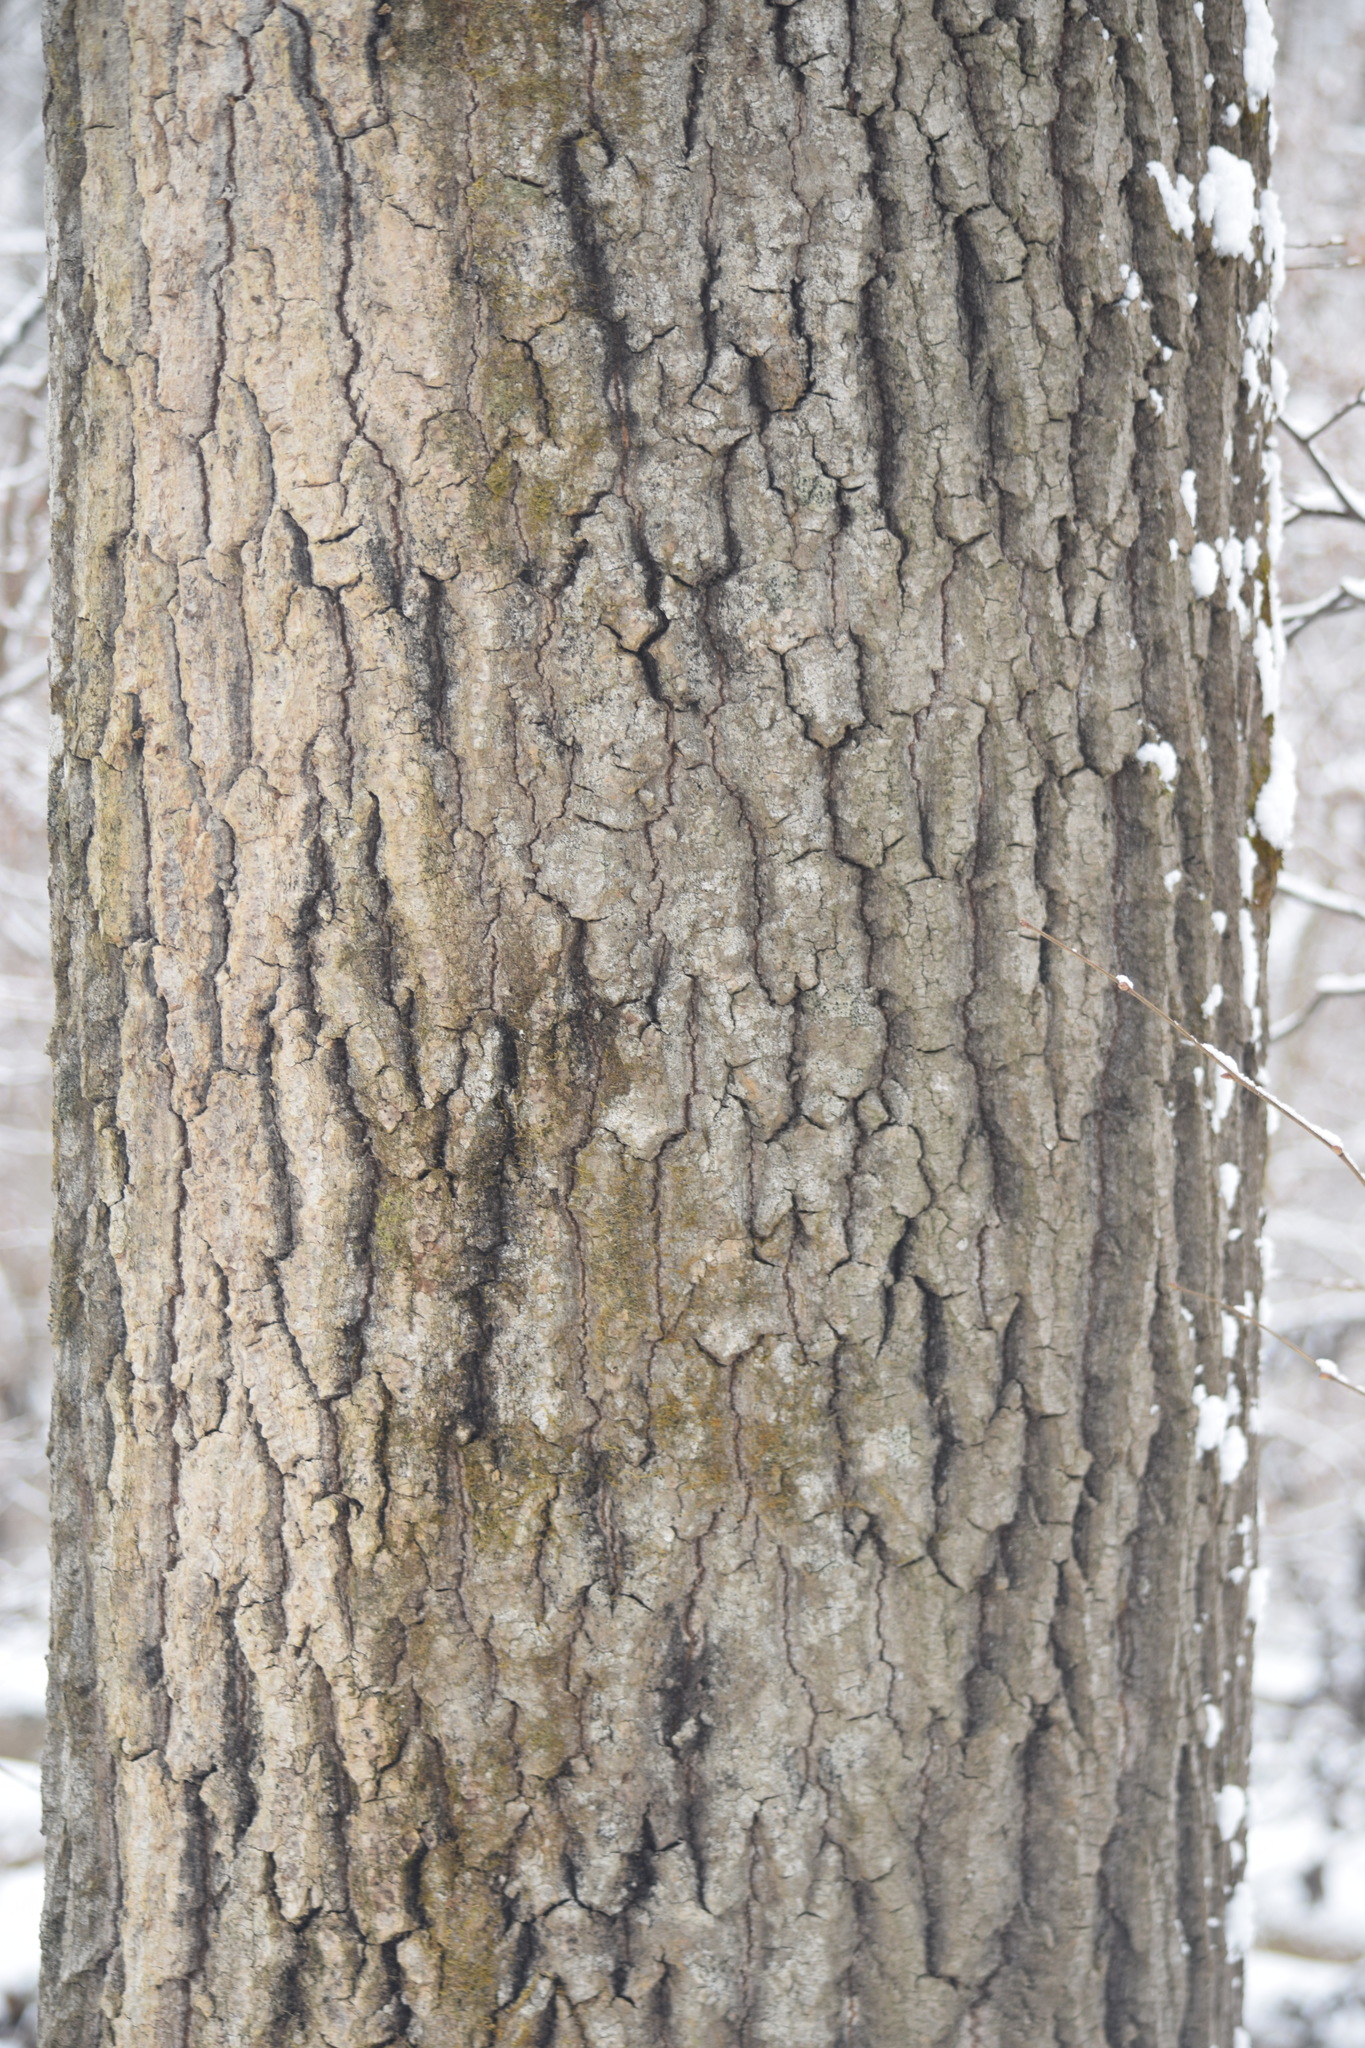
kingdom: Plantae
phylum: Tracheophyta
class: Magnoliopsida
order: Malpighiales
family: Salicaceae
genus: Populus
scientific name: Populus tremula
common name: European aspen
